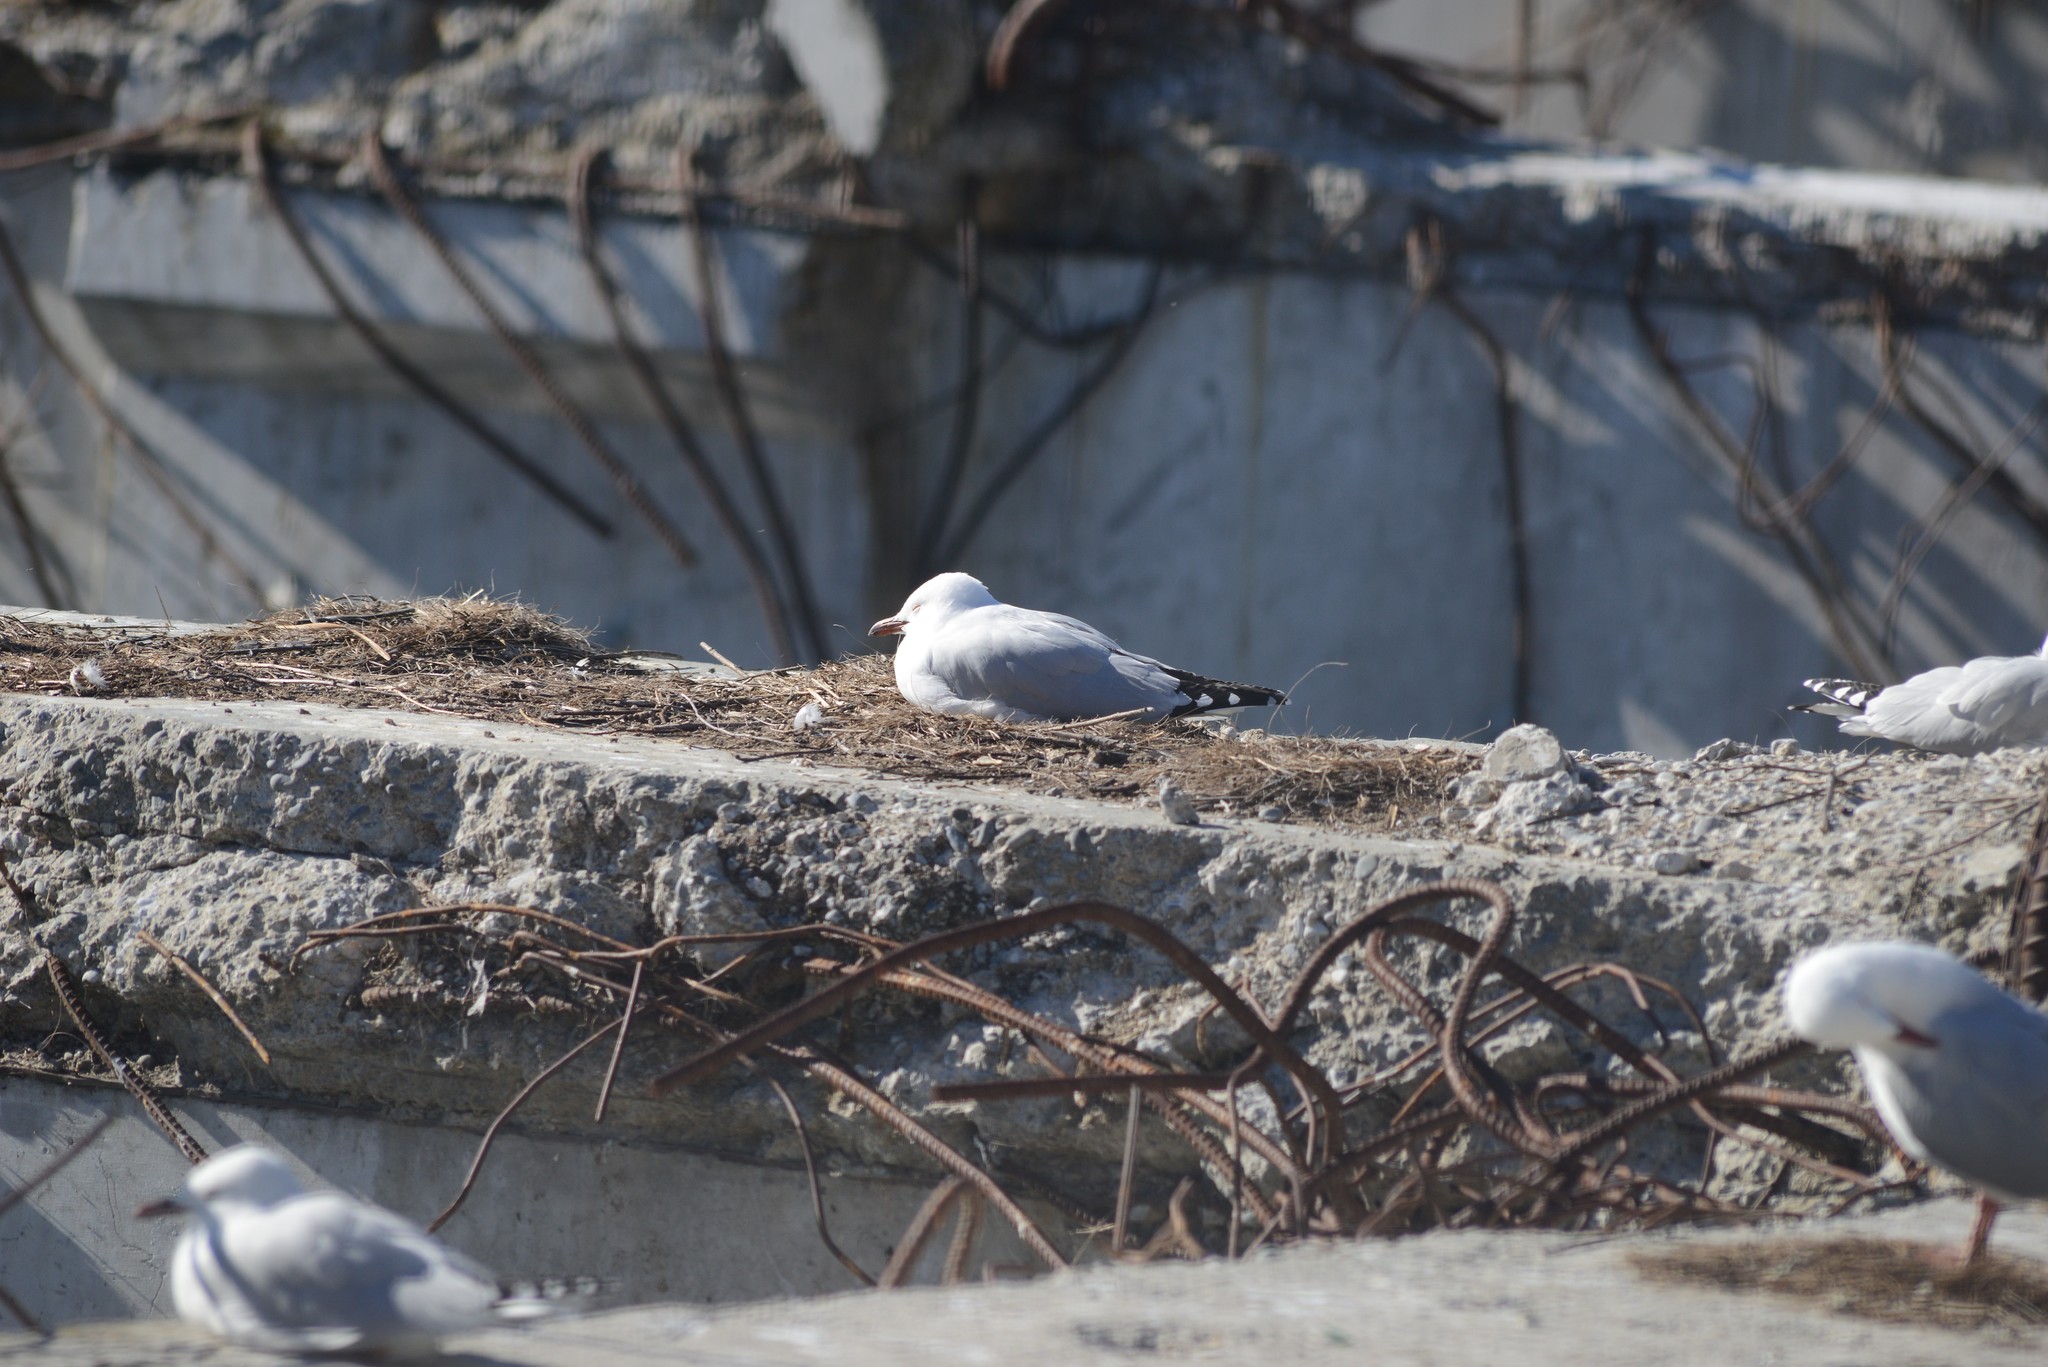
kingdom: Animalia
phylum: Chordata
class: Aves
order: Charadriiformes
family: Laridae
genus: Chroicocephalus
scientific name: Chroicocephalus novaehollandiae
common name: Silver gull
